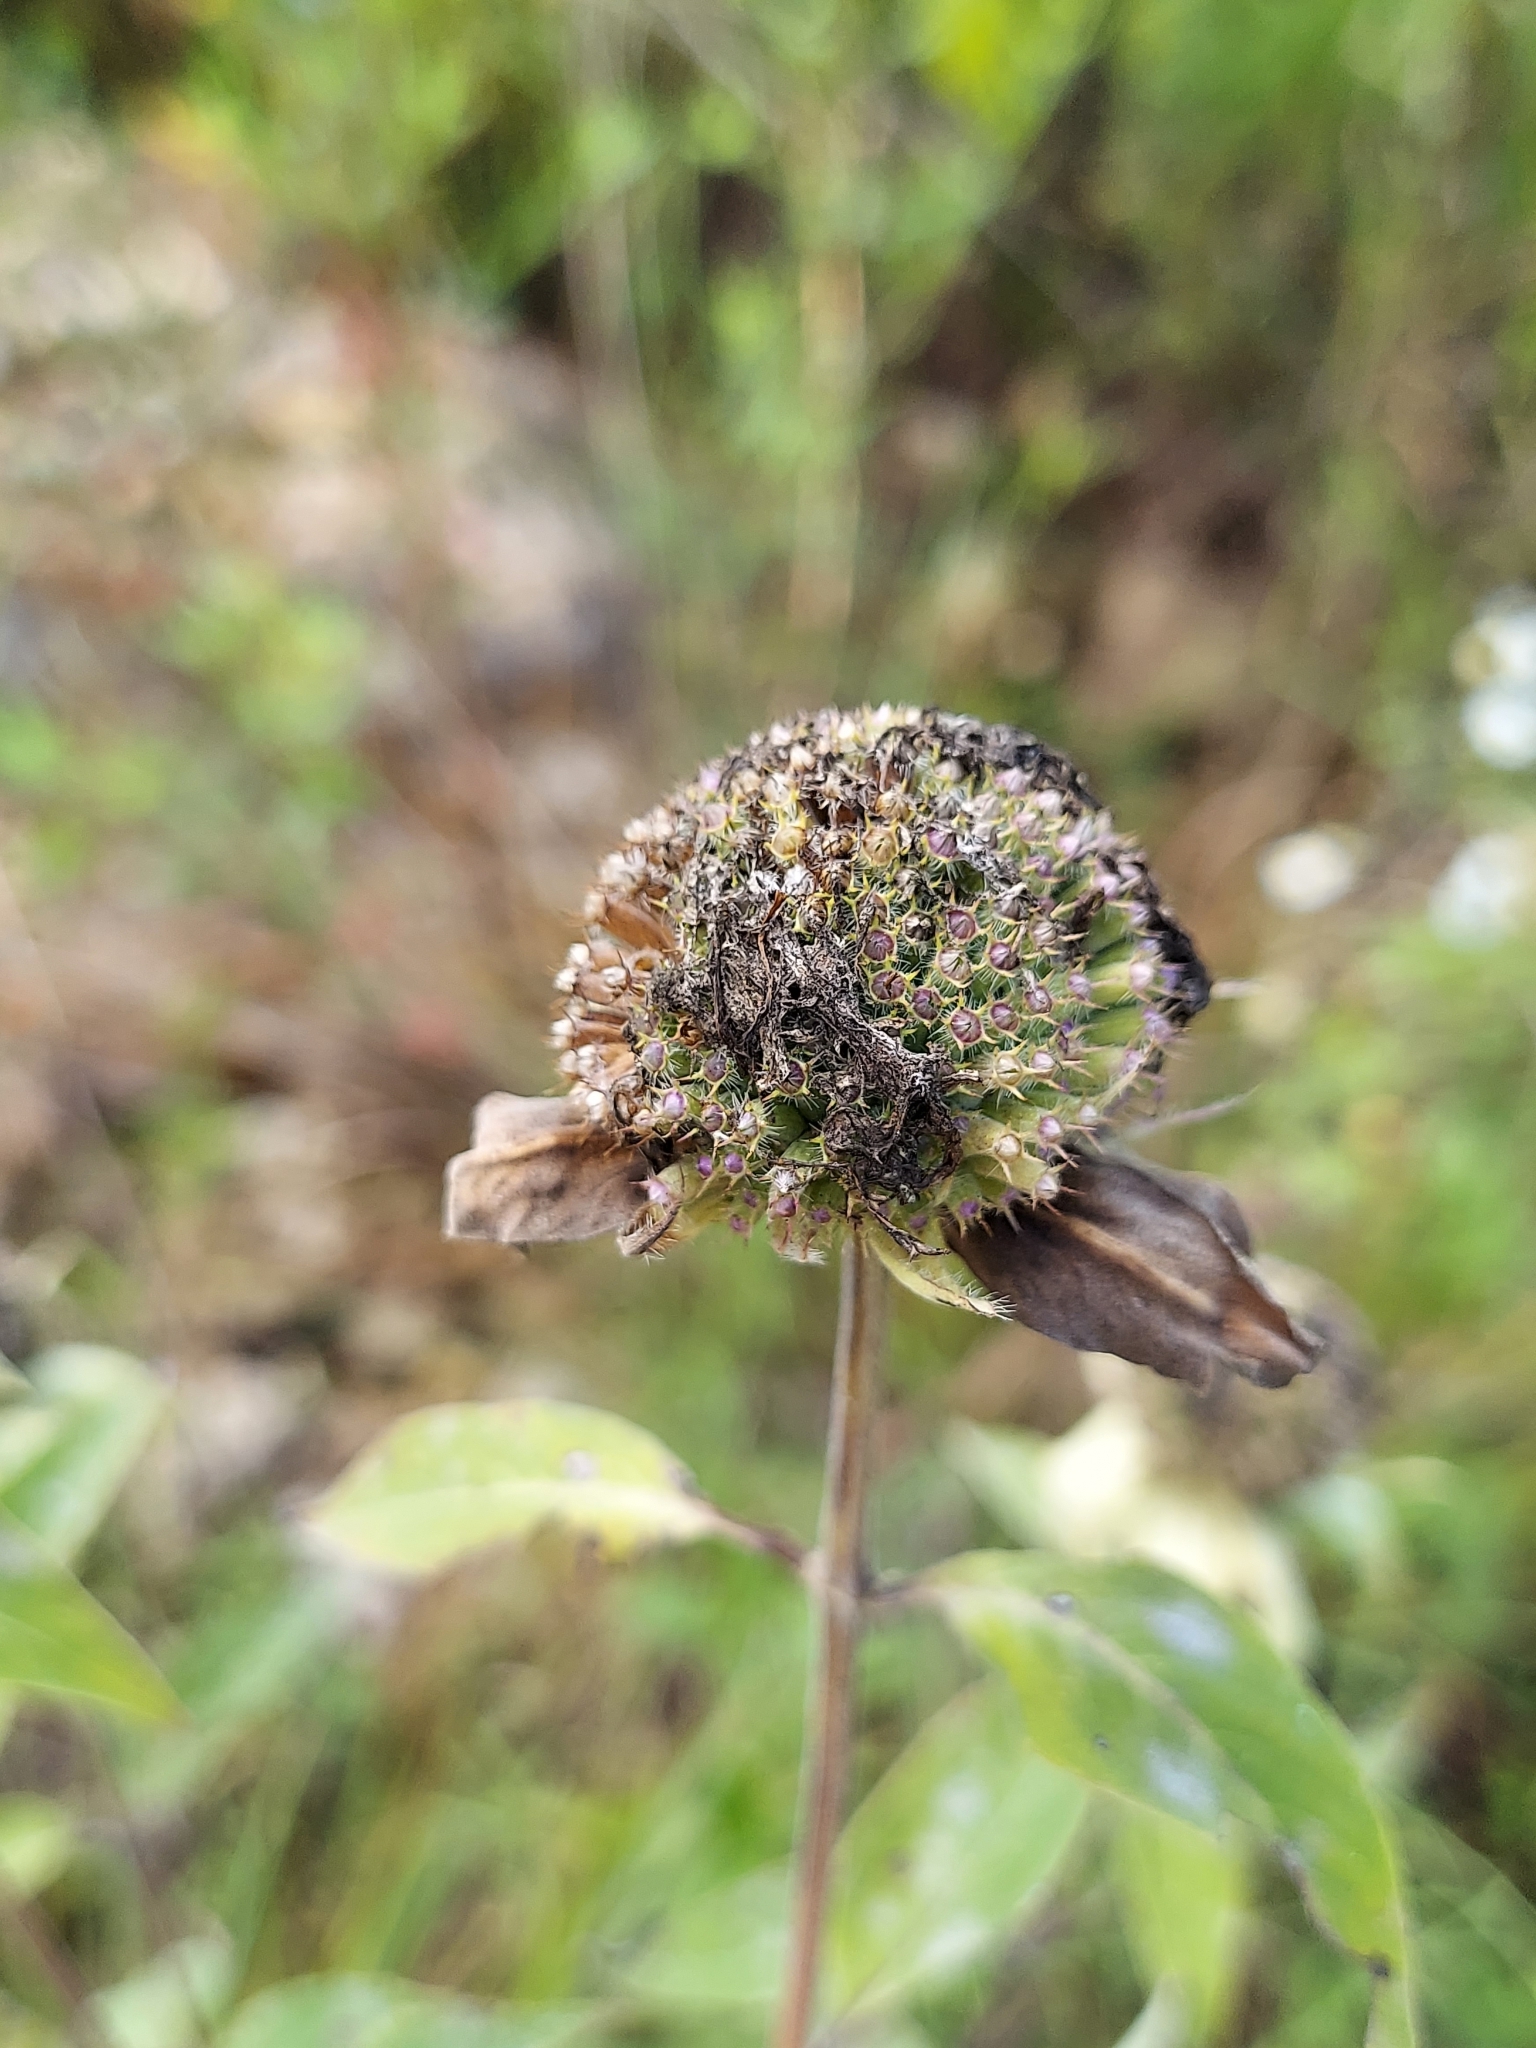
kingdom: Plantae
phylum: Tracheophyta
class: Magnoliopsida
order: Lamiales
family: Lamiaceae
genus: Monarda
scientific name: Monarda fistulosa
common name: Purple beebalm
